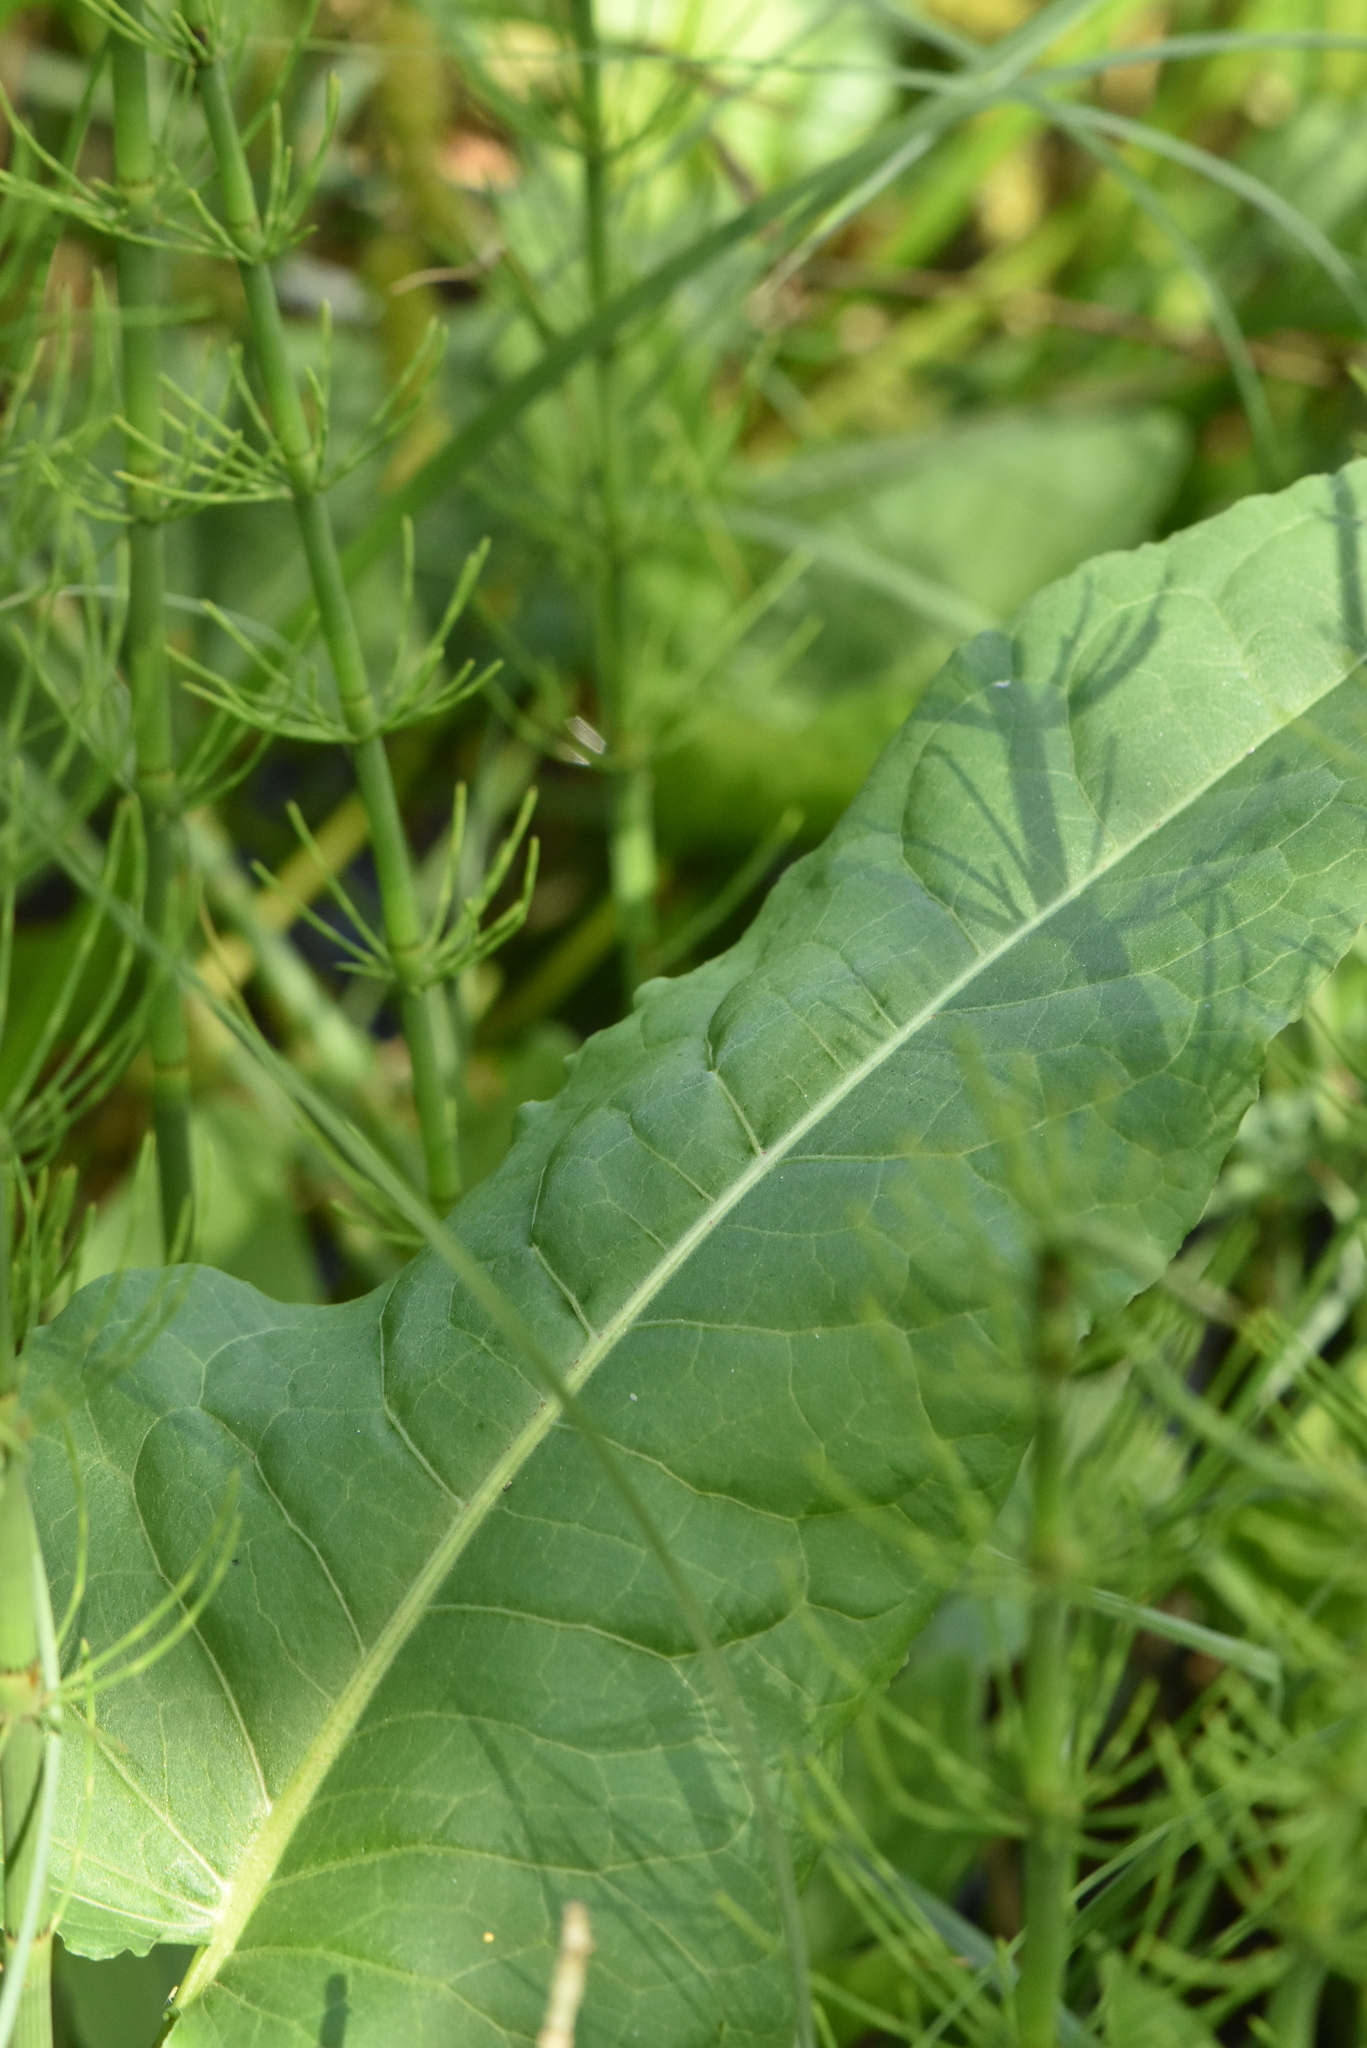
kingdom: Plantae
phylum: Tracheophyta
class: Magnoliopsida
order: Caryophyllales
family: Polygonaceae
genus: Rumex
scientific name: Rumex aquaticus
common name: Scottish dock
